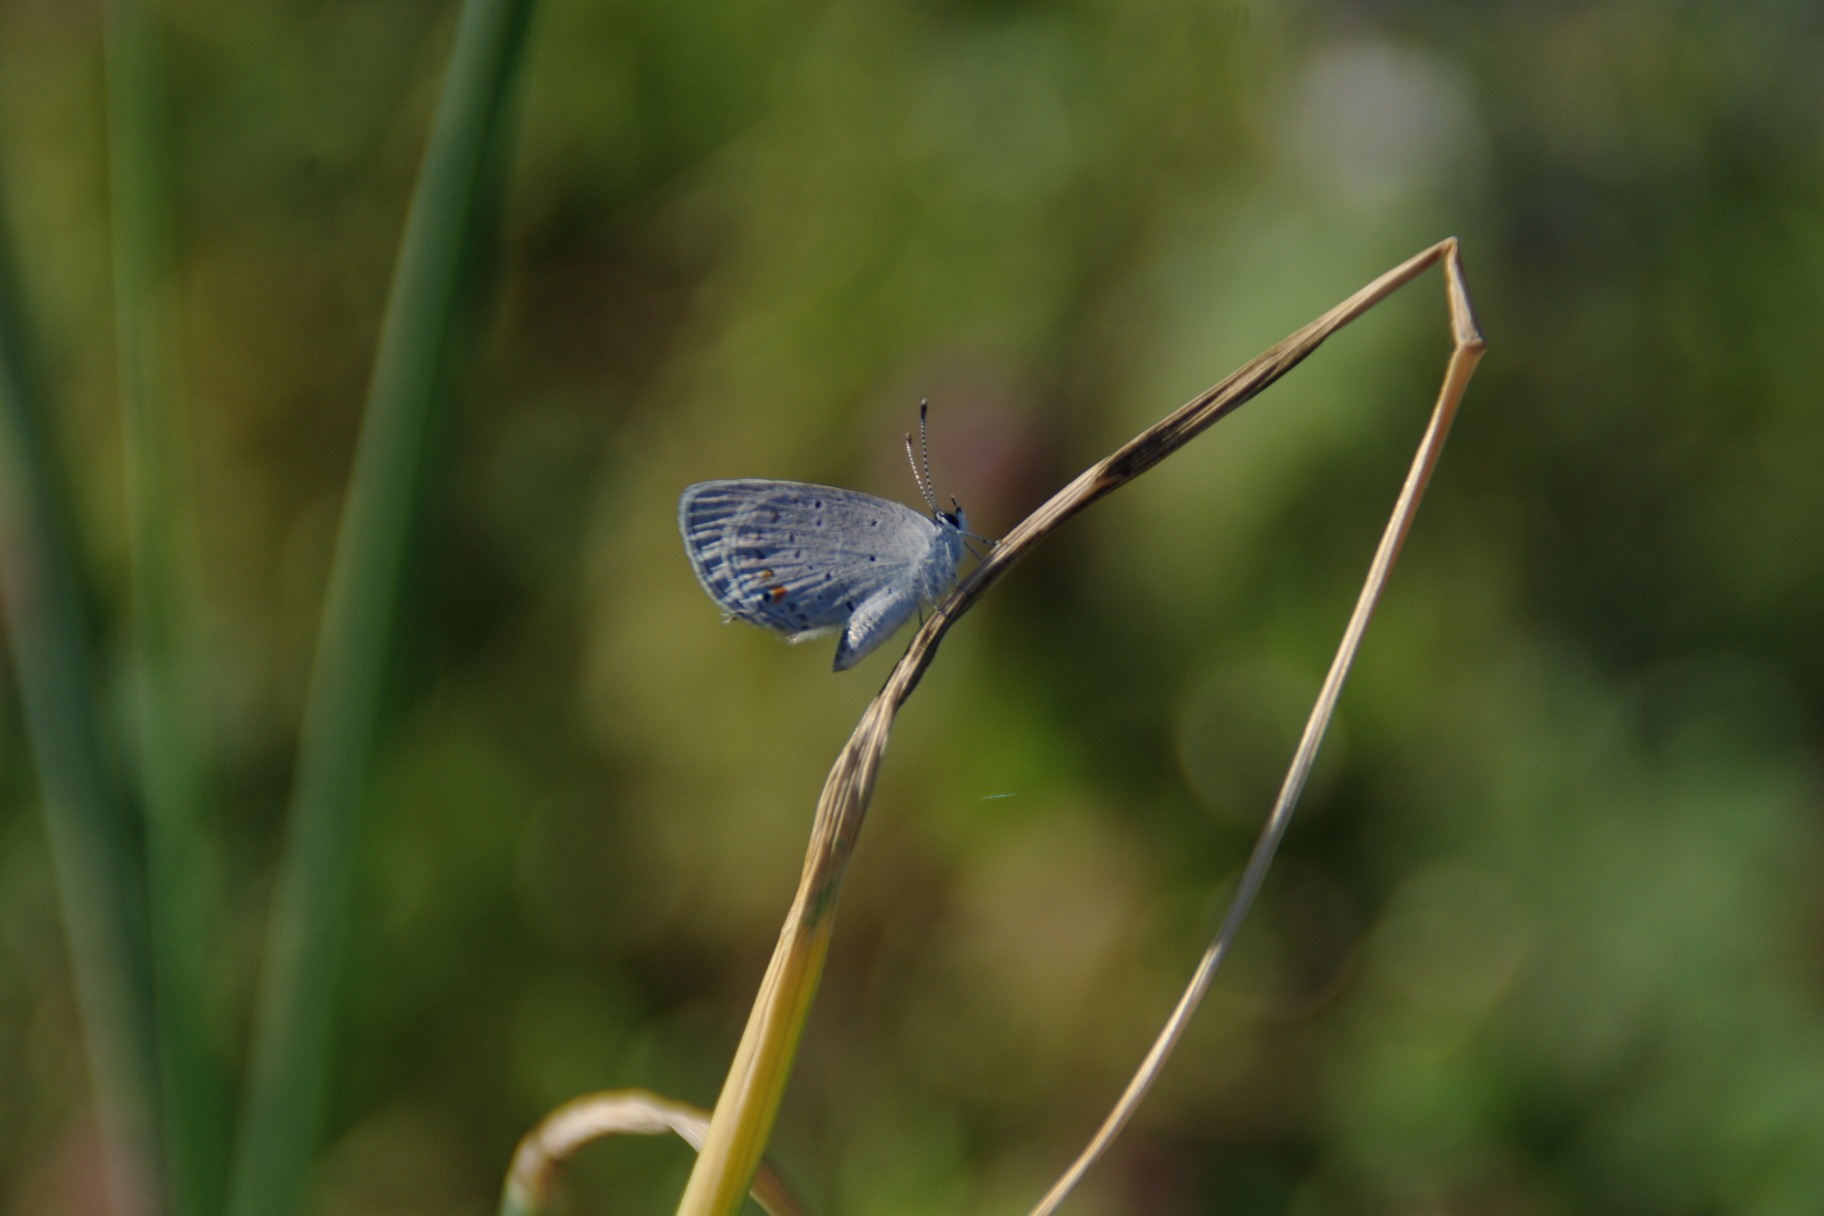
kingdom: Animalia
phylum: Arthropoda
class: Insecta
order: Lepidoptera
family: Lycaenidae
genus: Elkalyce
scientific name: Elkalyce comyntas
